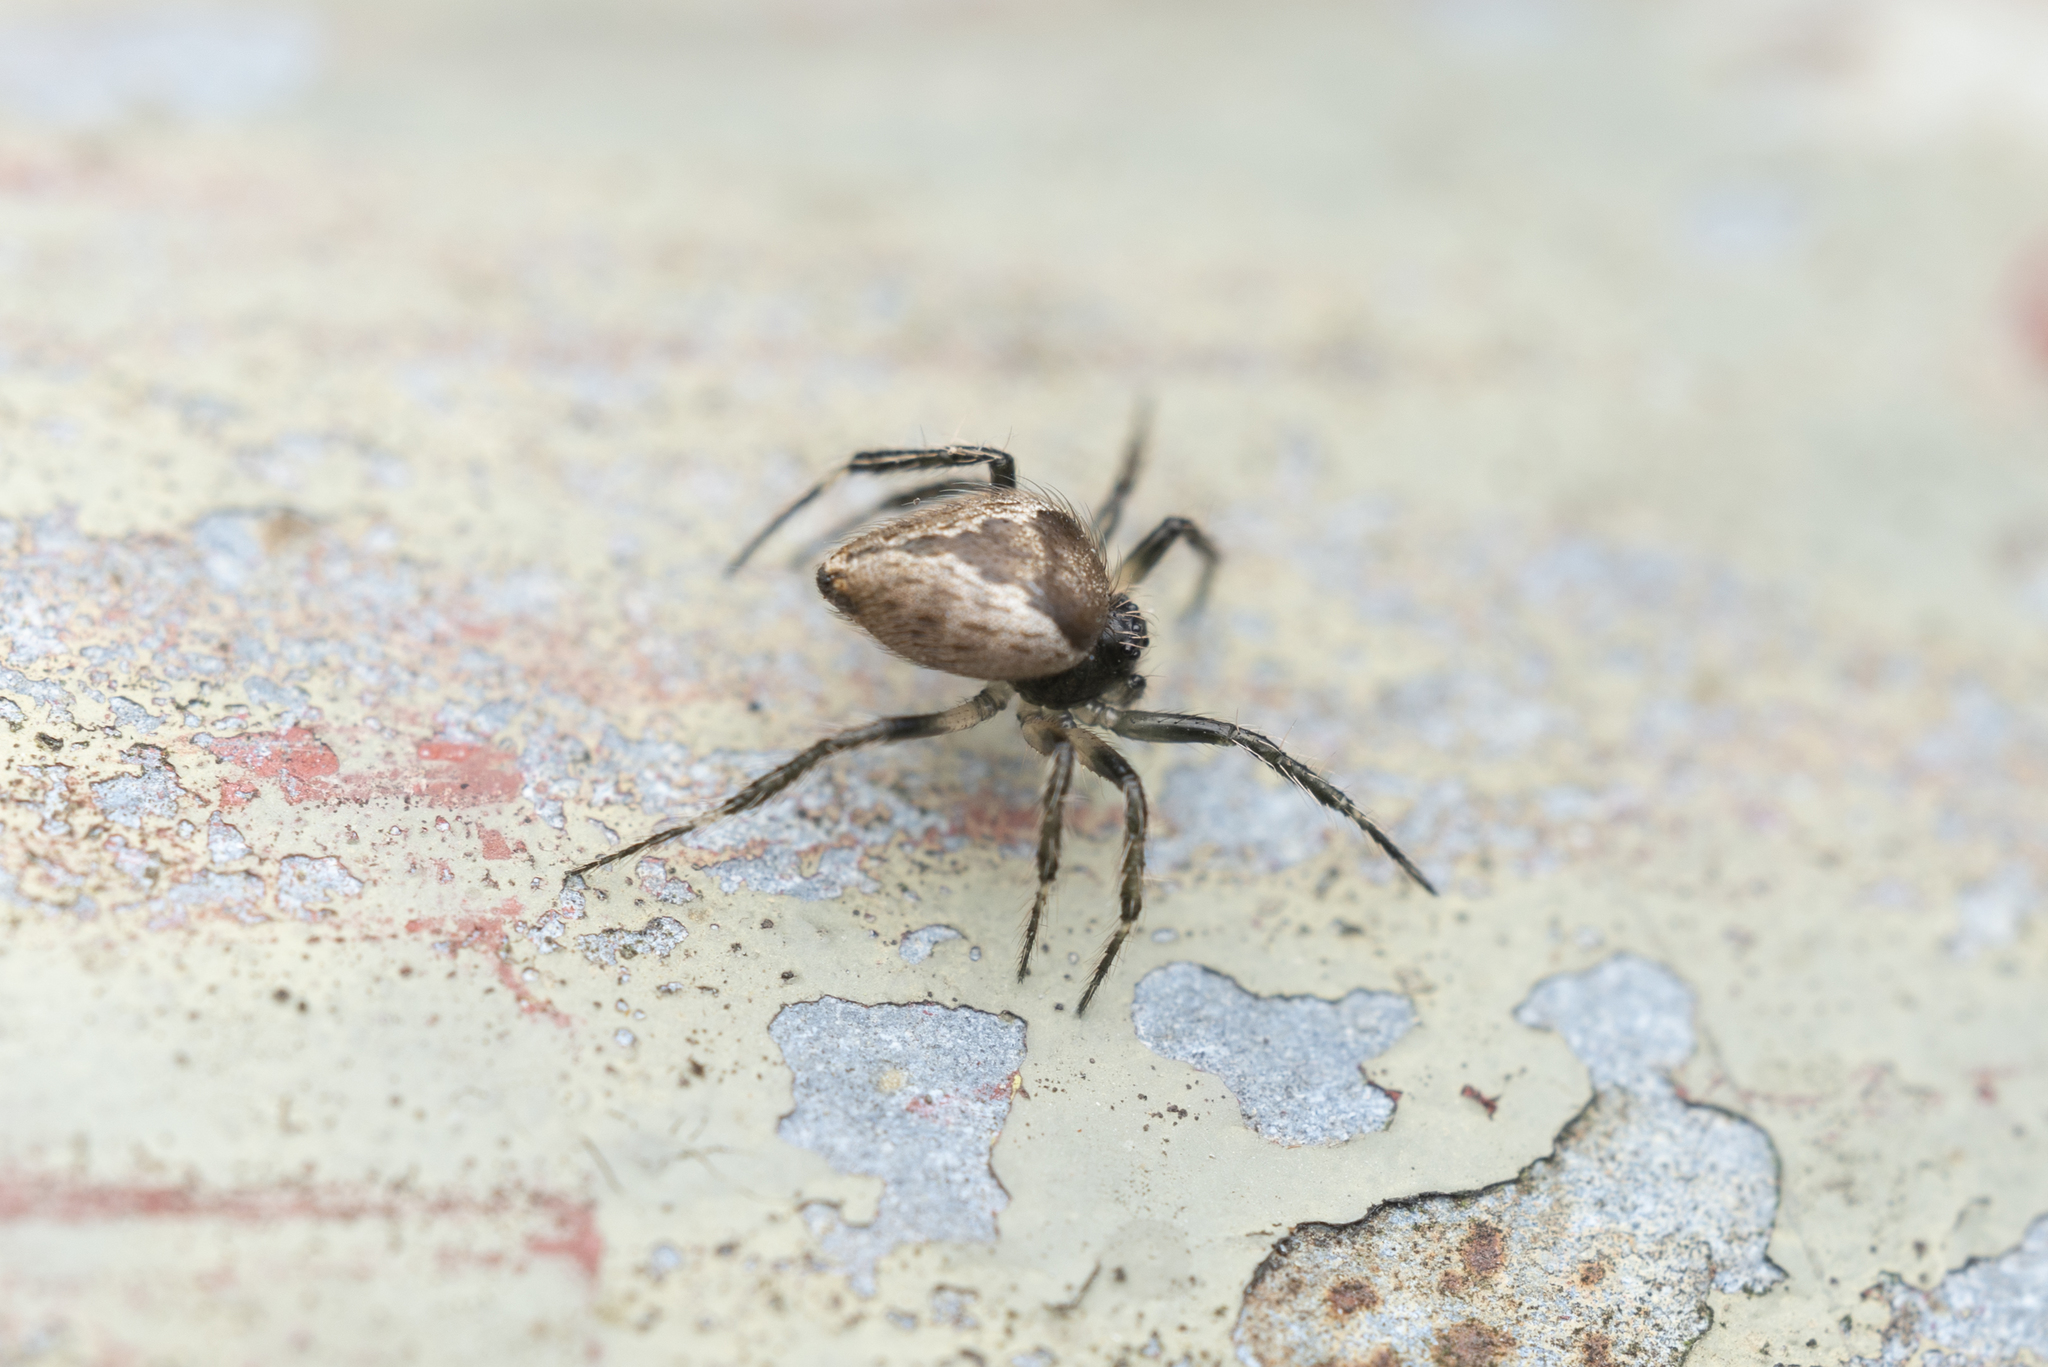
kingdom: Animalia
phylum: Arthropoda
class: Arachnida
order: Araneae
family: Theridiidae
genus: Emertonella
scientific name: Emertonella taczanowskii
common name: Cobweb spiders
